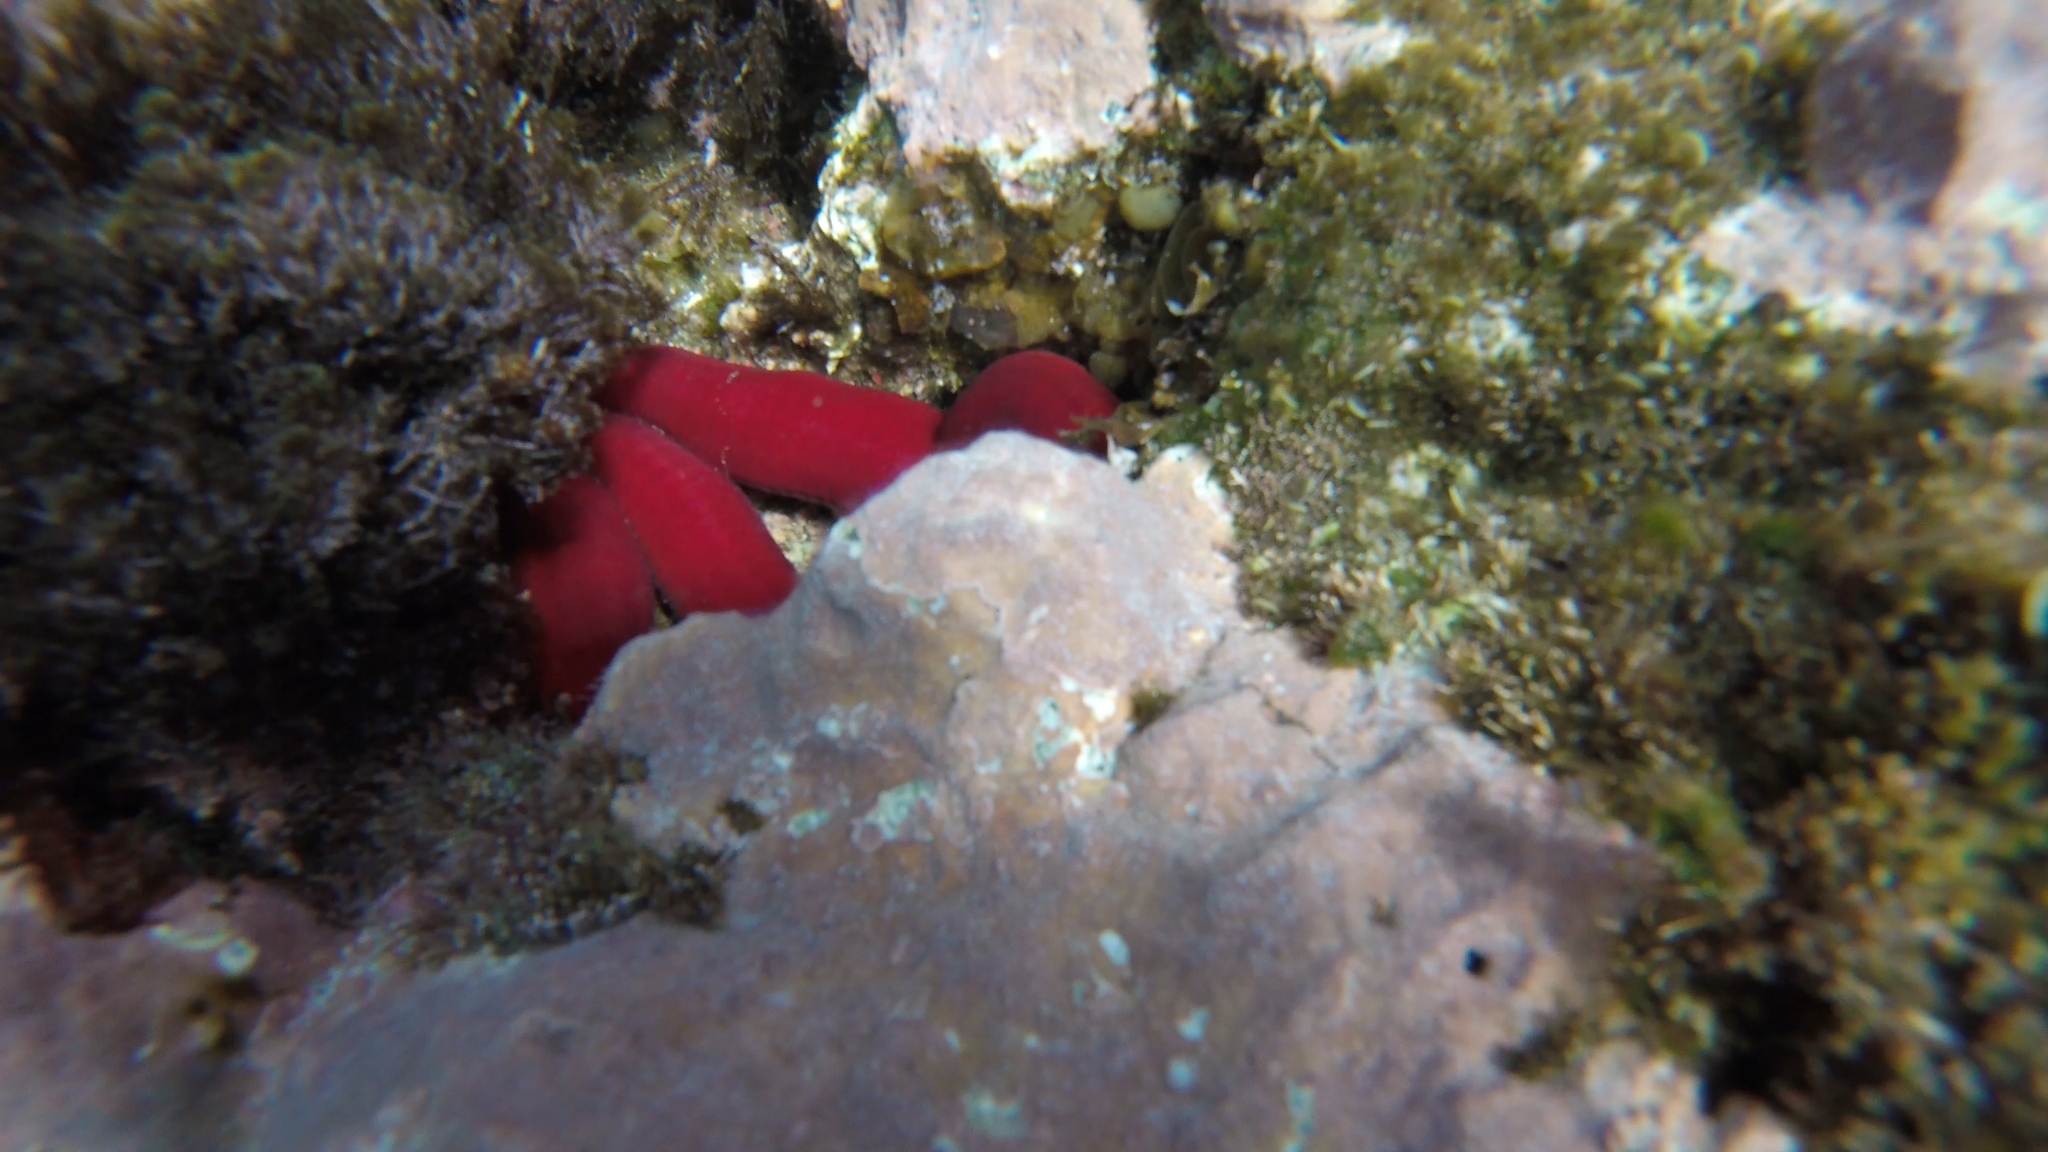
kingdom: Animalia
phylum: Echinodermata
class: Asteroidea
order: Valvatida
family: Ophidiasteridae
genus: Ophidiaster
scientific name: Ophidiaster ophidianus
